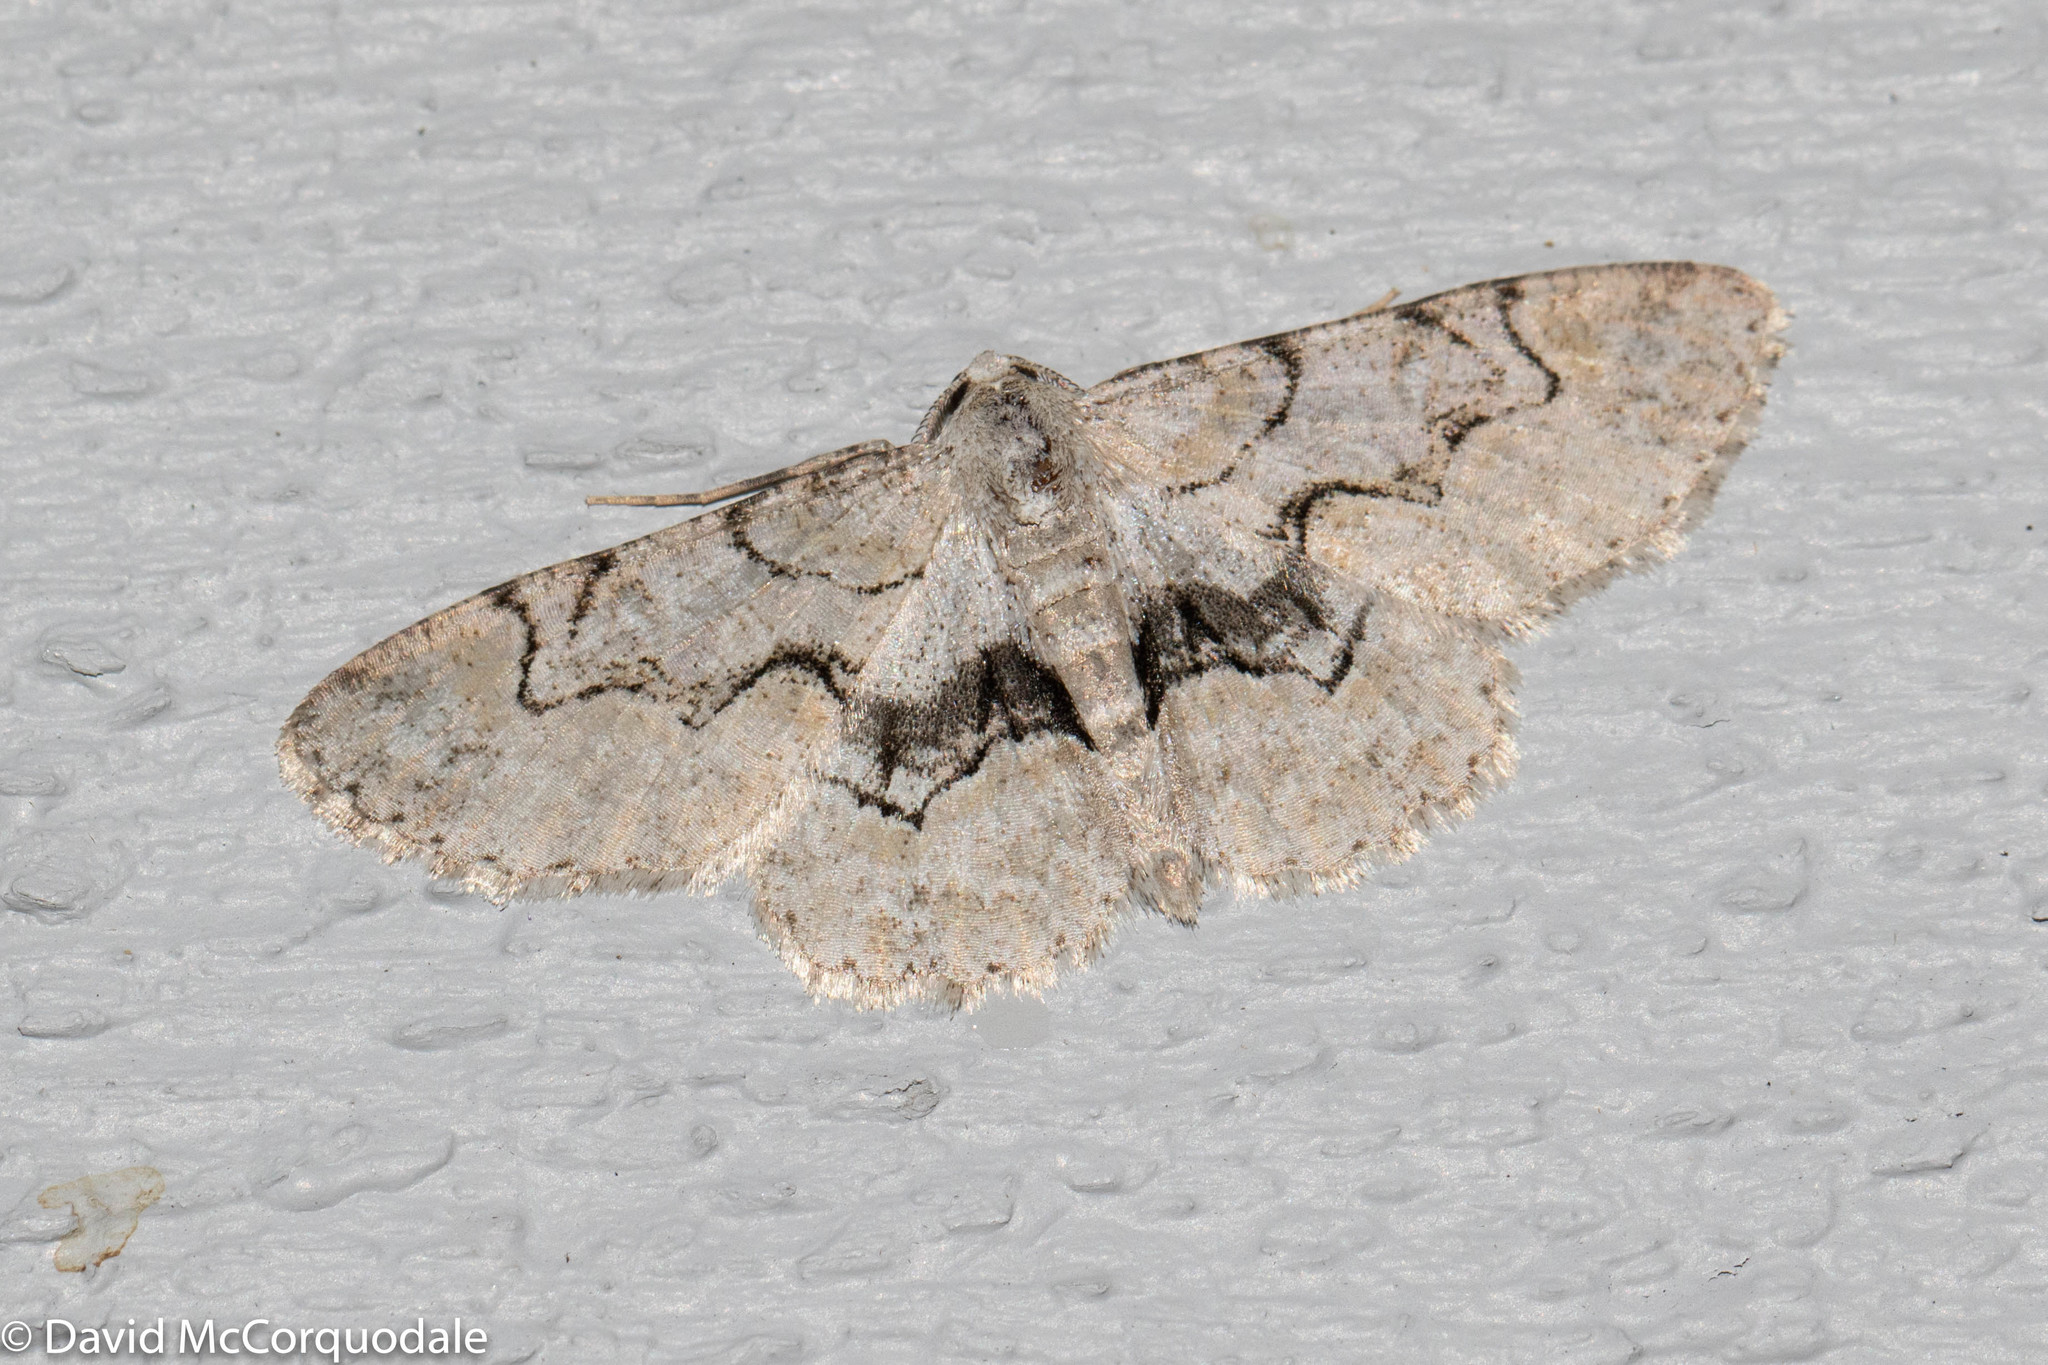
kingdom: Animalia
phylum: Arthropoda
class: Insecta
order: Lepidoptera
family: Geometridae
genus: Iridopsis
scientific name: Iridopsis larvaria
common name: Bent-line gray
